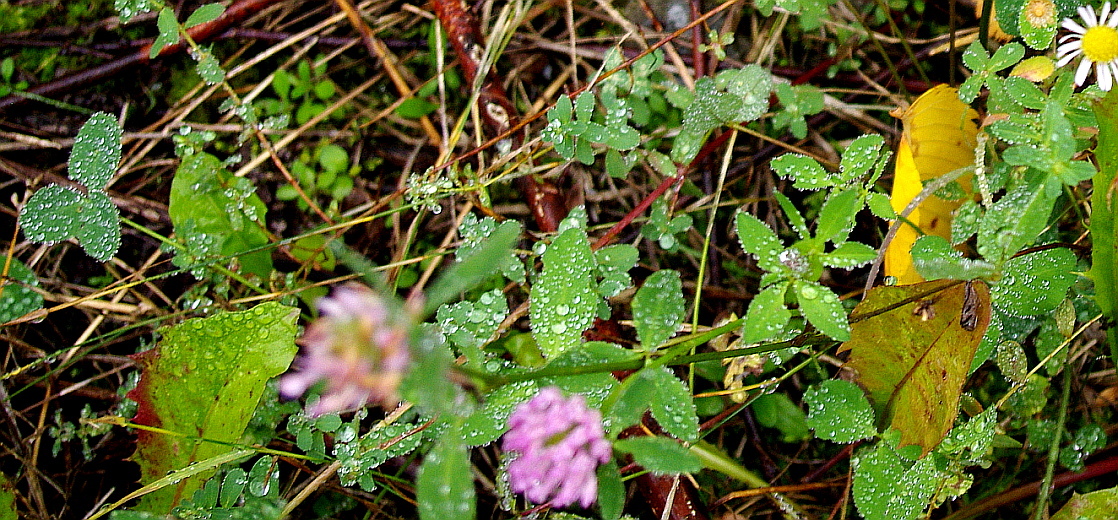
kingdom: Plantae
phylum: Tracheophyta
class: Magnoliopsida
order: Fabales
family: Fabaceae
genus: Trifolium
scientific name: Trifolium pratense
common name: Red clover
